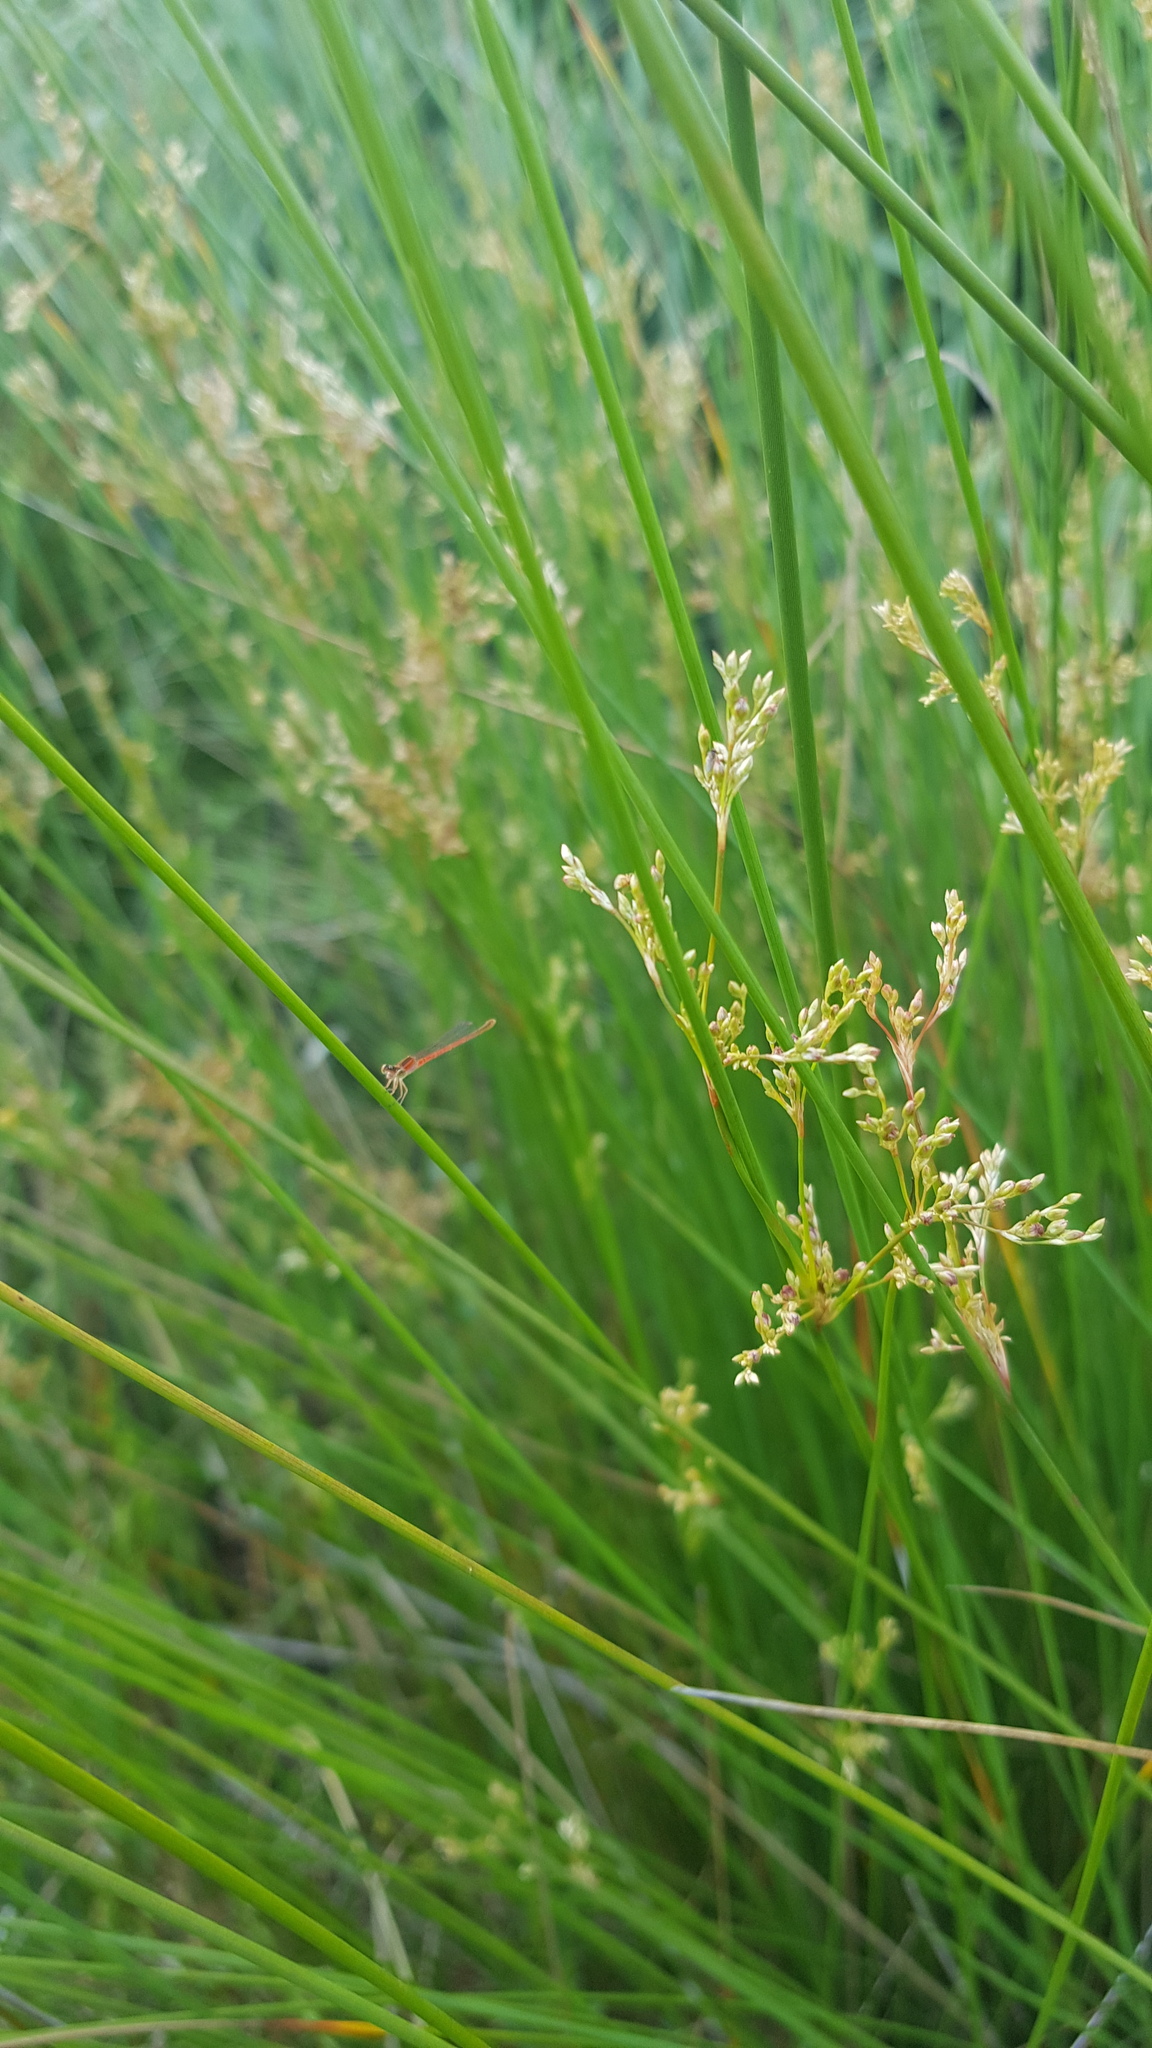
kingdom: Animalia
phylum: Arthropoda
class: Insecta
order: Odonata
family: Coenagrionidae
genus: Agriocnemis
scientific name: Agriocnemis pygmaea
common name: Pygmy wisp
